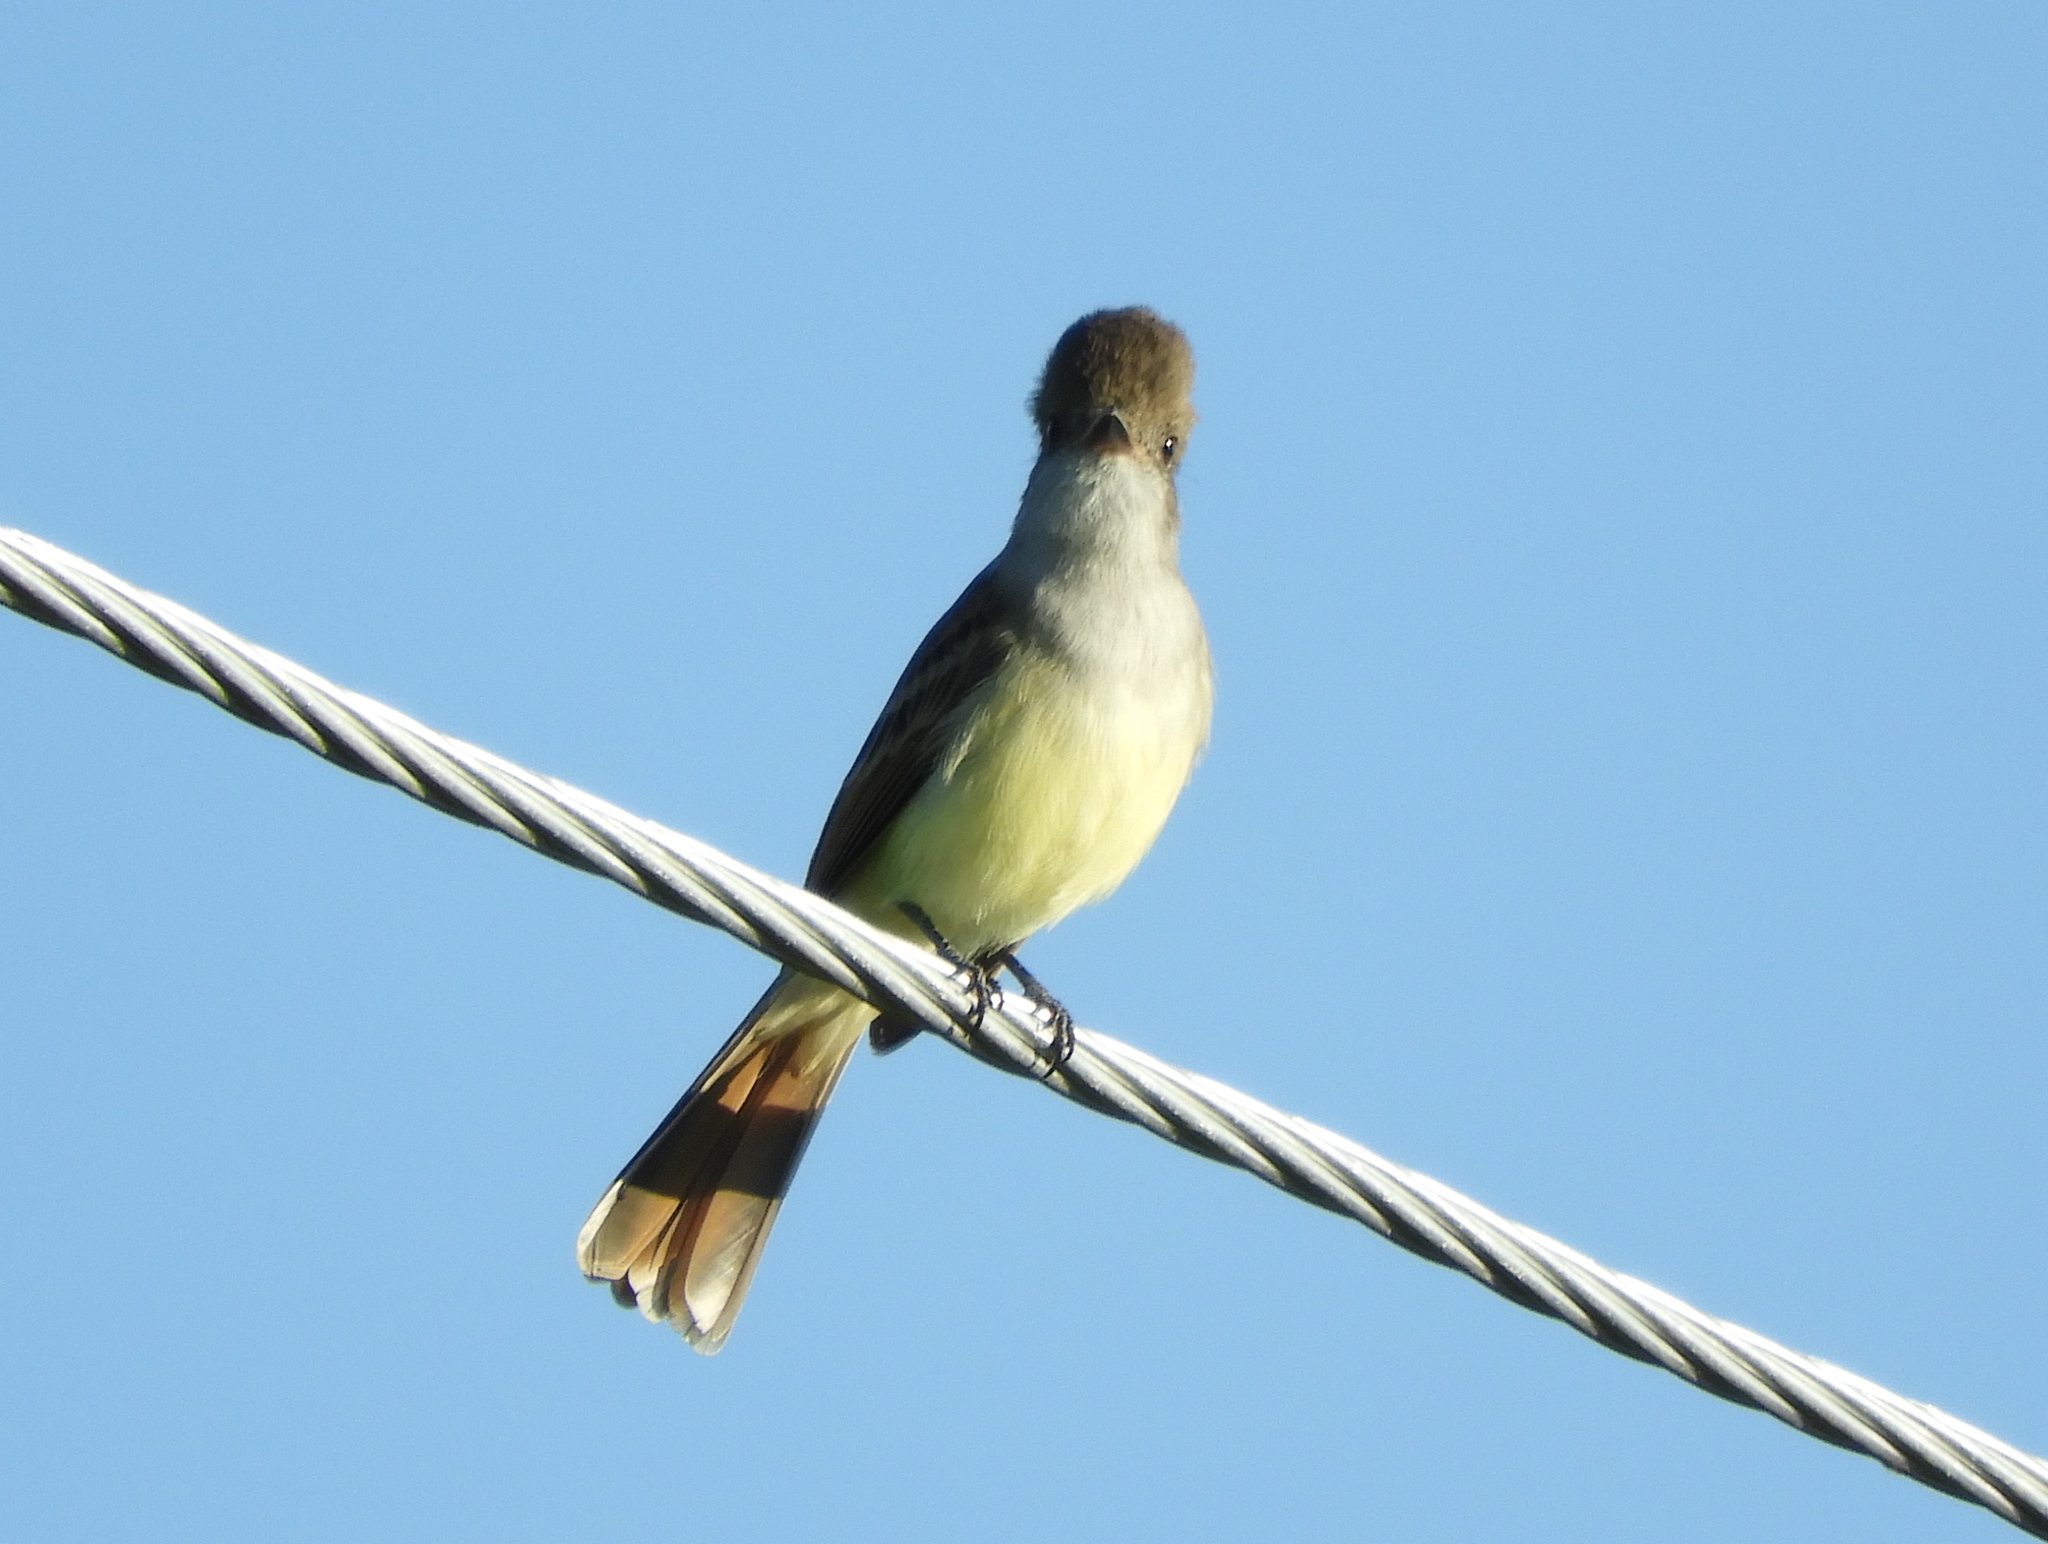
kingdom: Animalia
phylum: Chordata
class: Aves
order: Passeriformes
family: Tyrannidae
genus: Myiarchus
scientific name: Myiarchus tuberculifer
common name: Dusky-capped flycatcher
